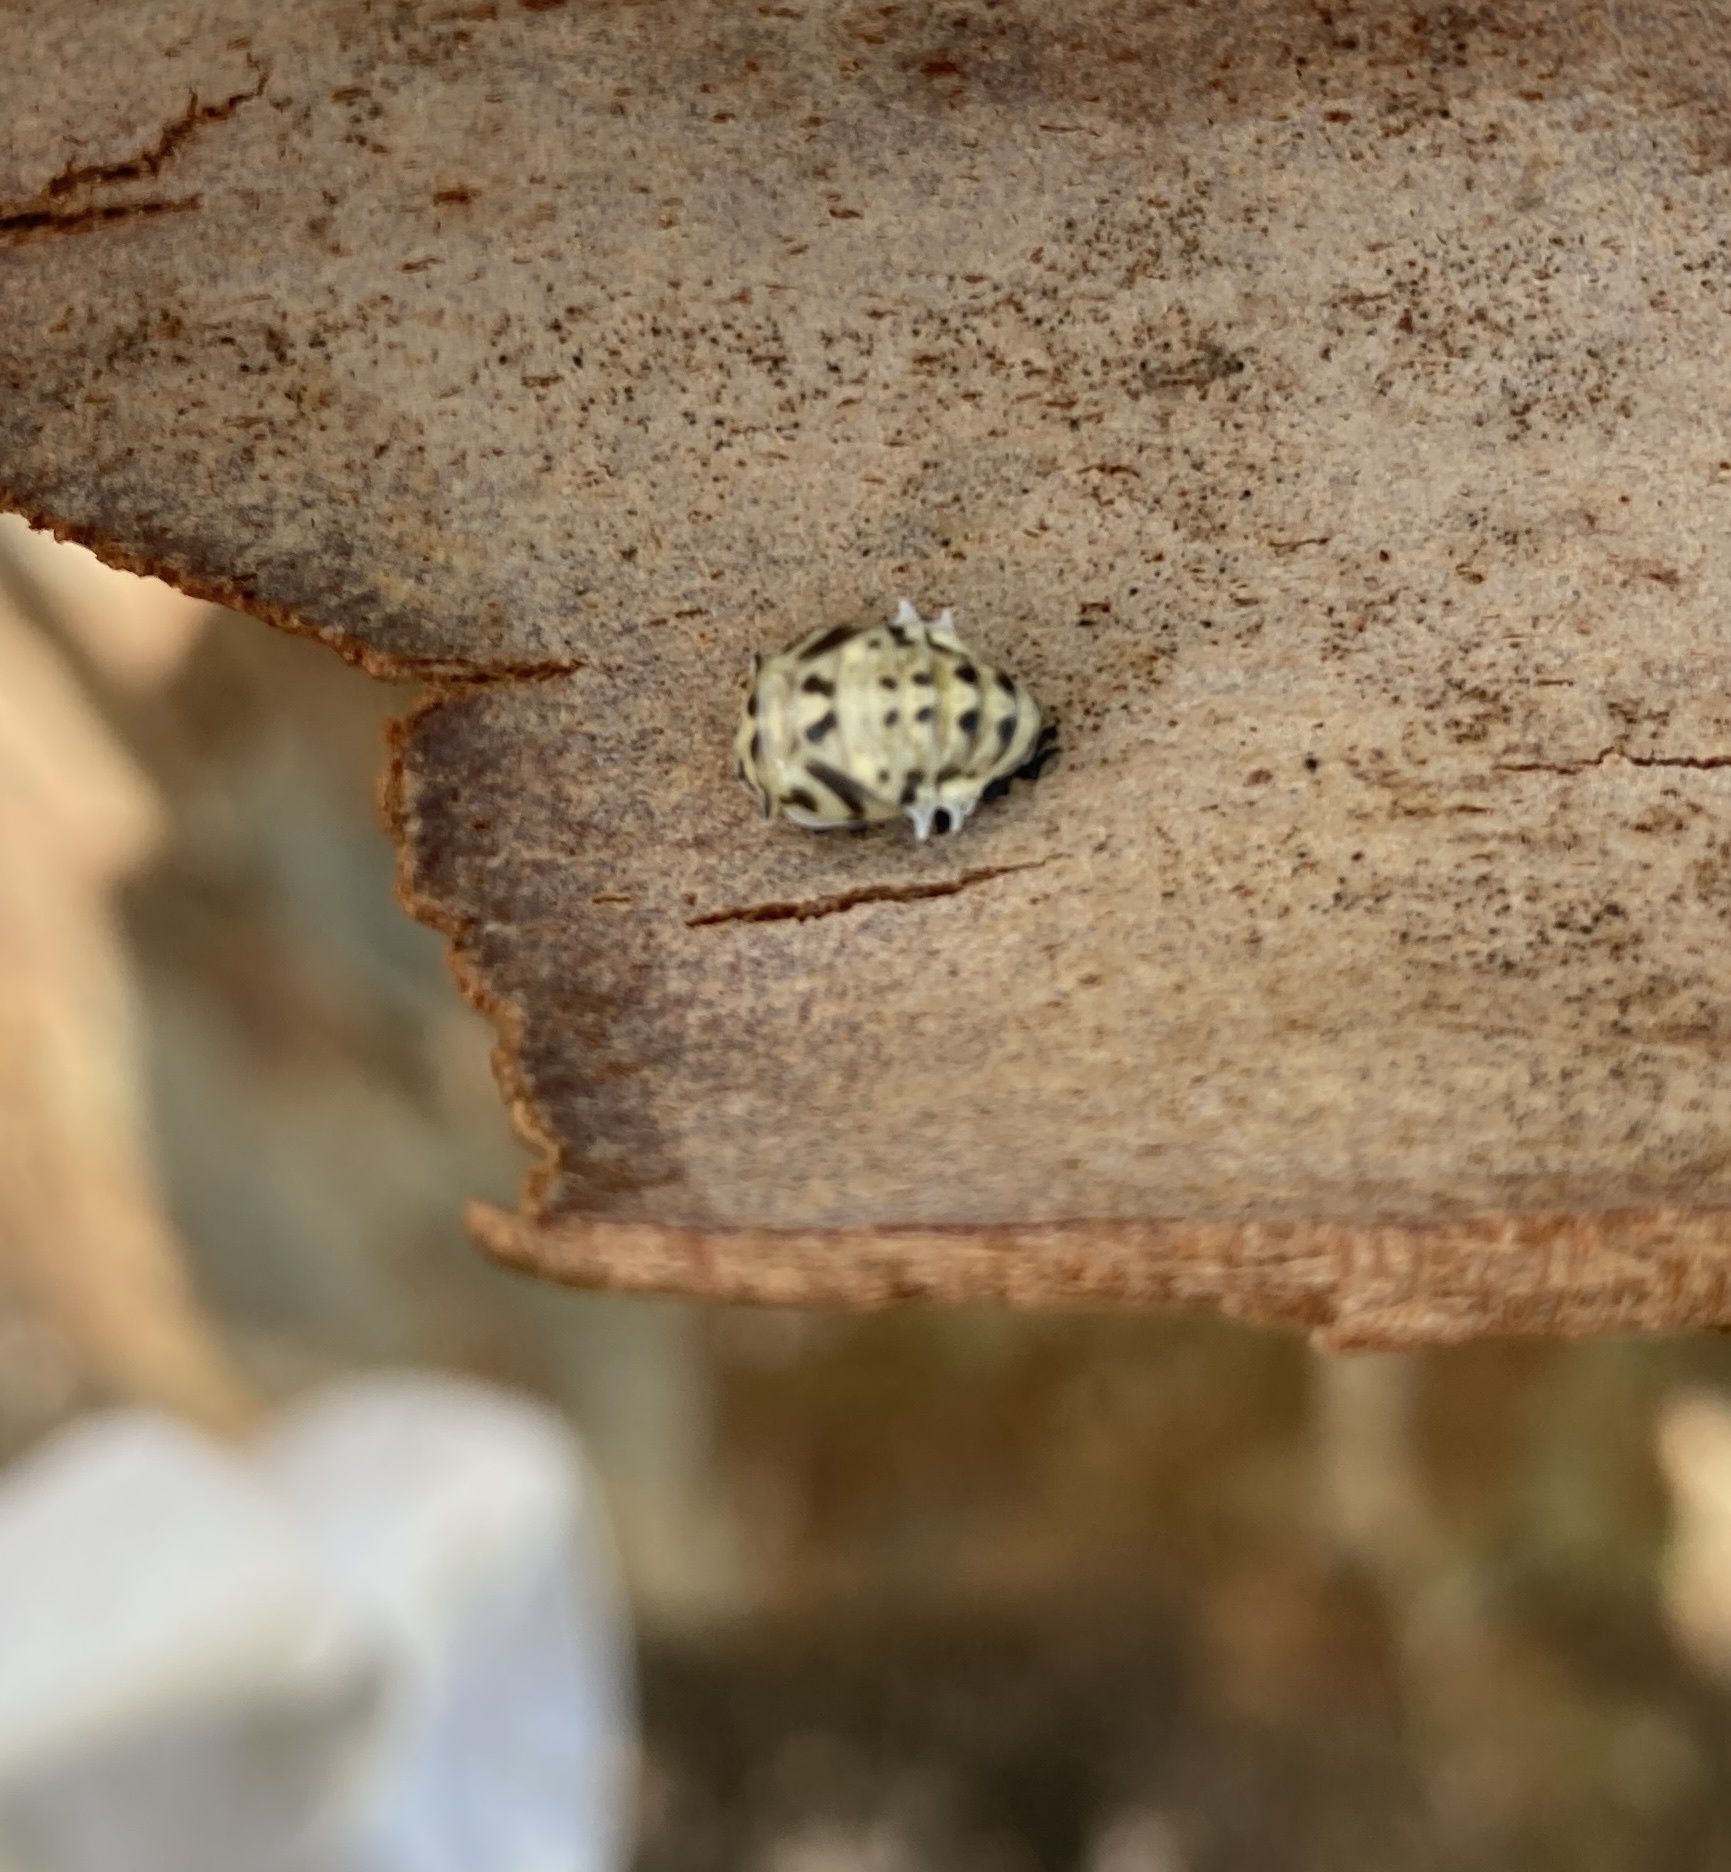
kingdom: Animalia
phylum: Arthropoda
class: Insecta
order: Coleoptera
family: Coccinellidae
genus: Cleobora
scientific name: Cleobora
